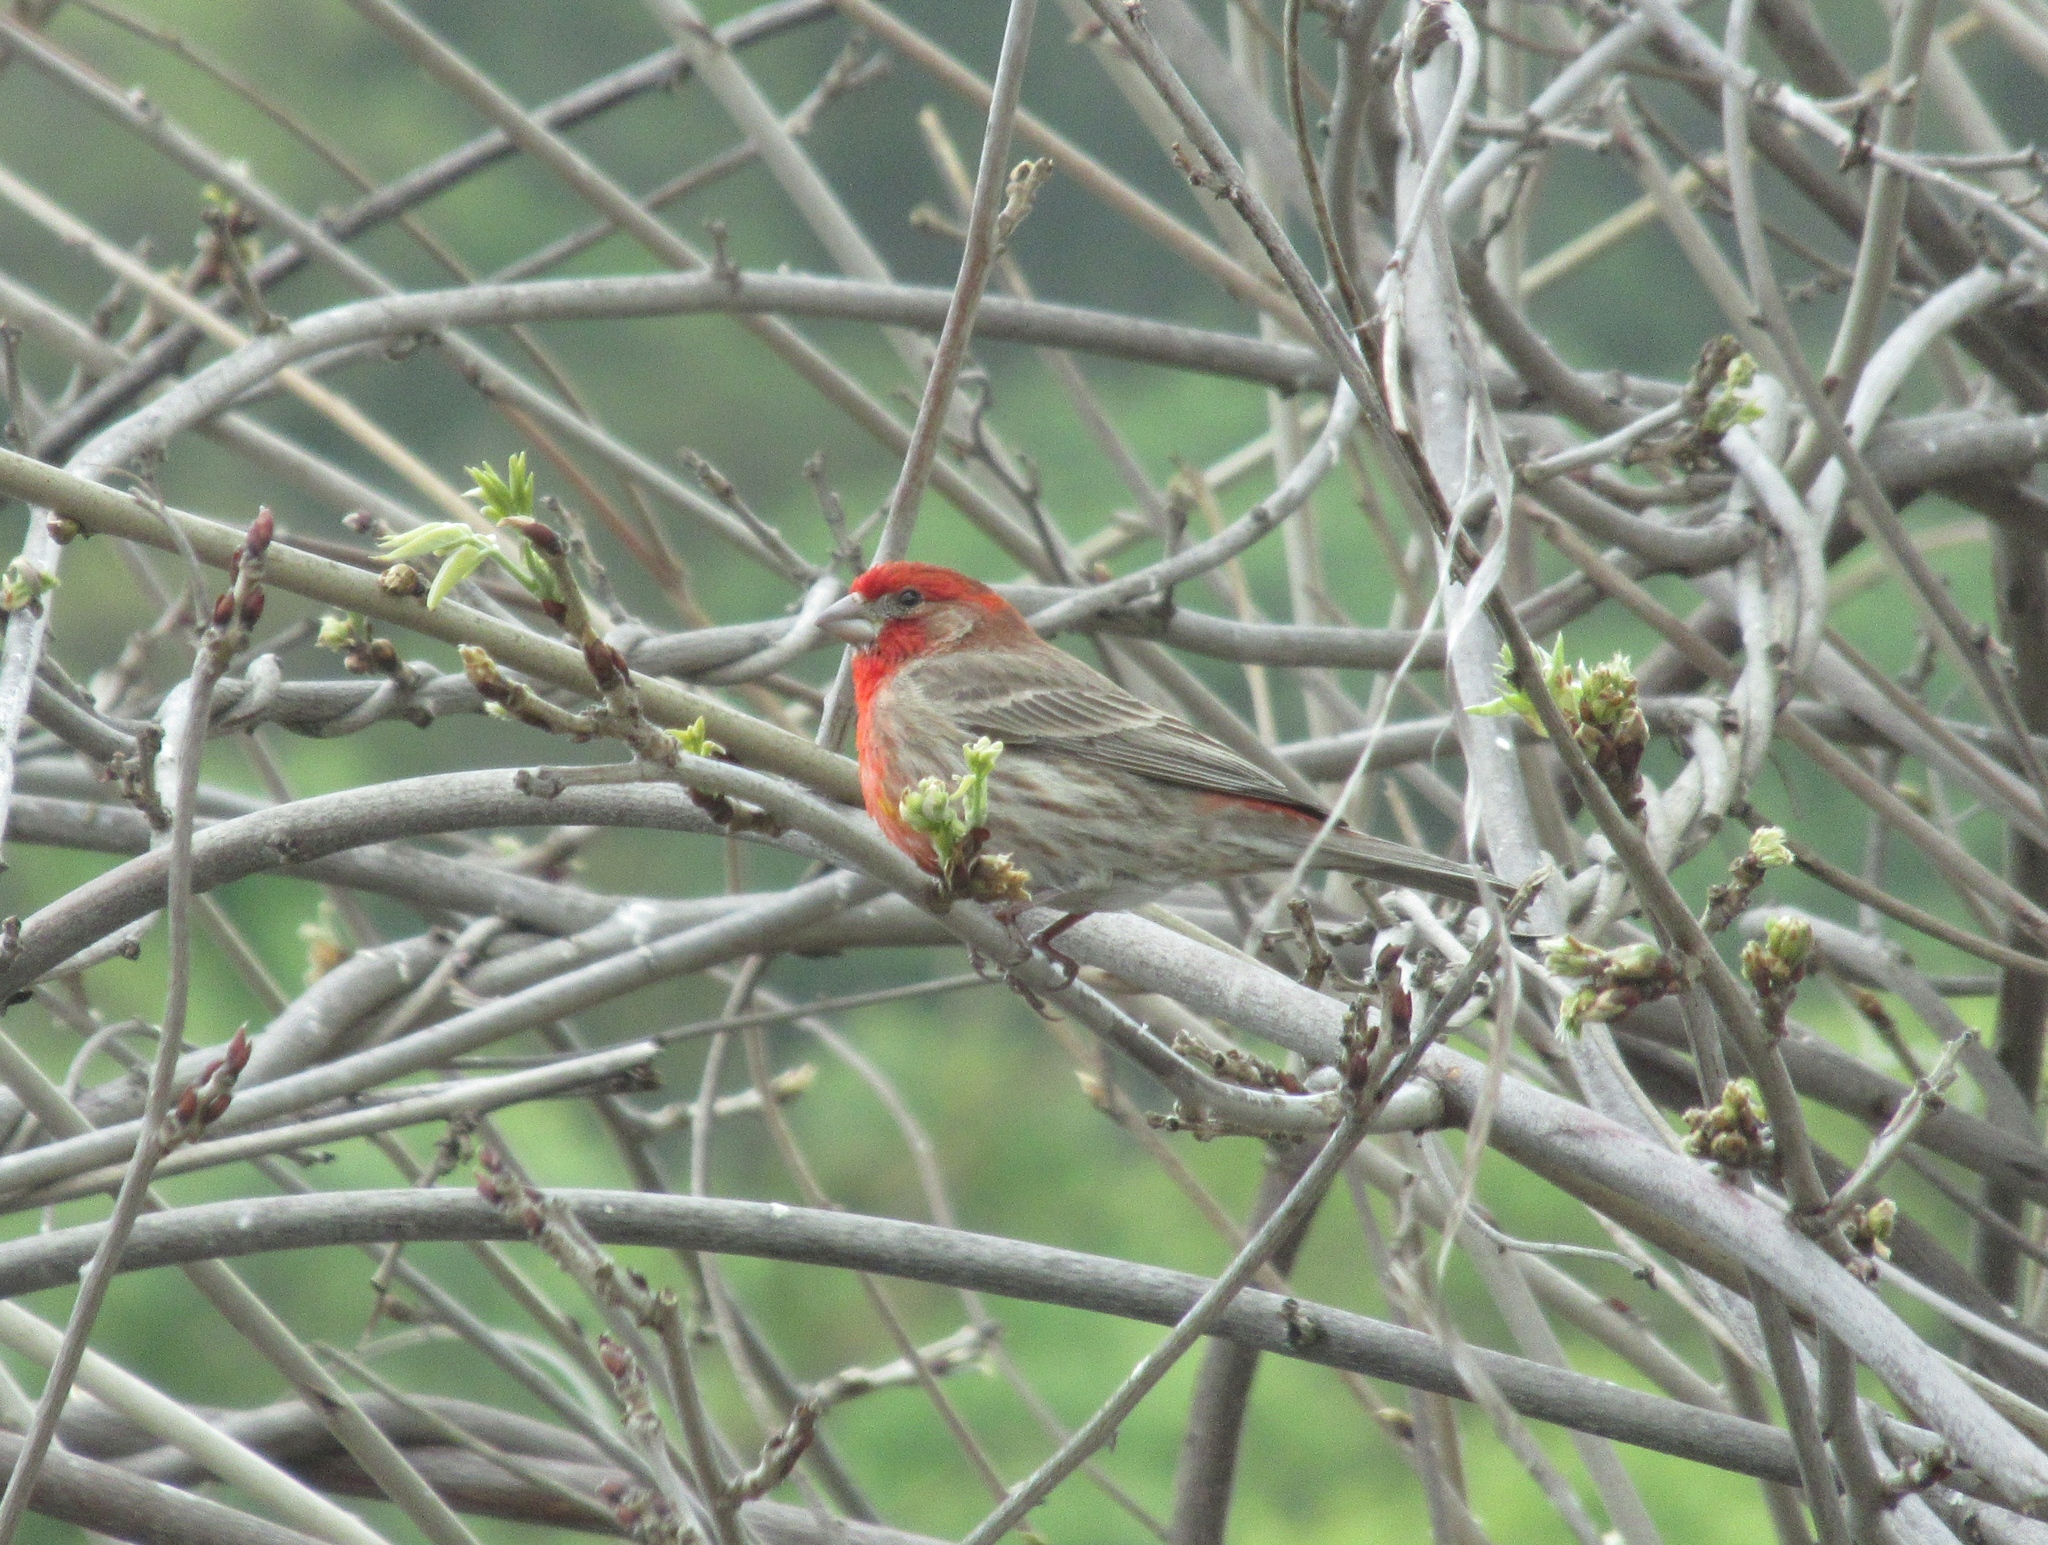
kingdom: Animalia
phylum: Chordata
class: Aves
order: Passeriformes
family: Fringillidae
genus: Haemorhous
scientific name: Haemorhous mexicanus
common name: House finch
